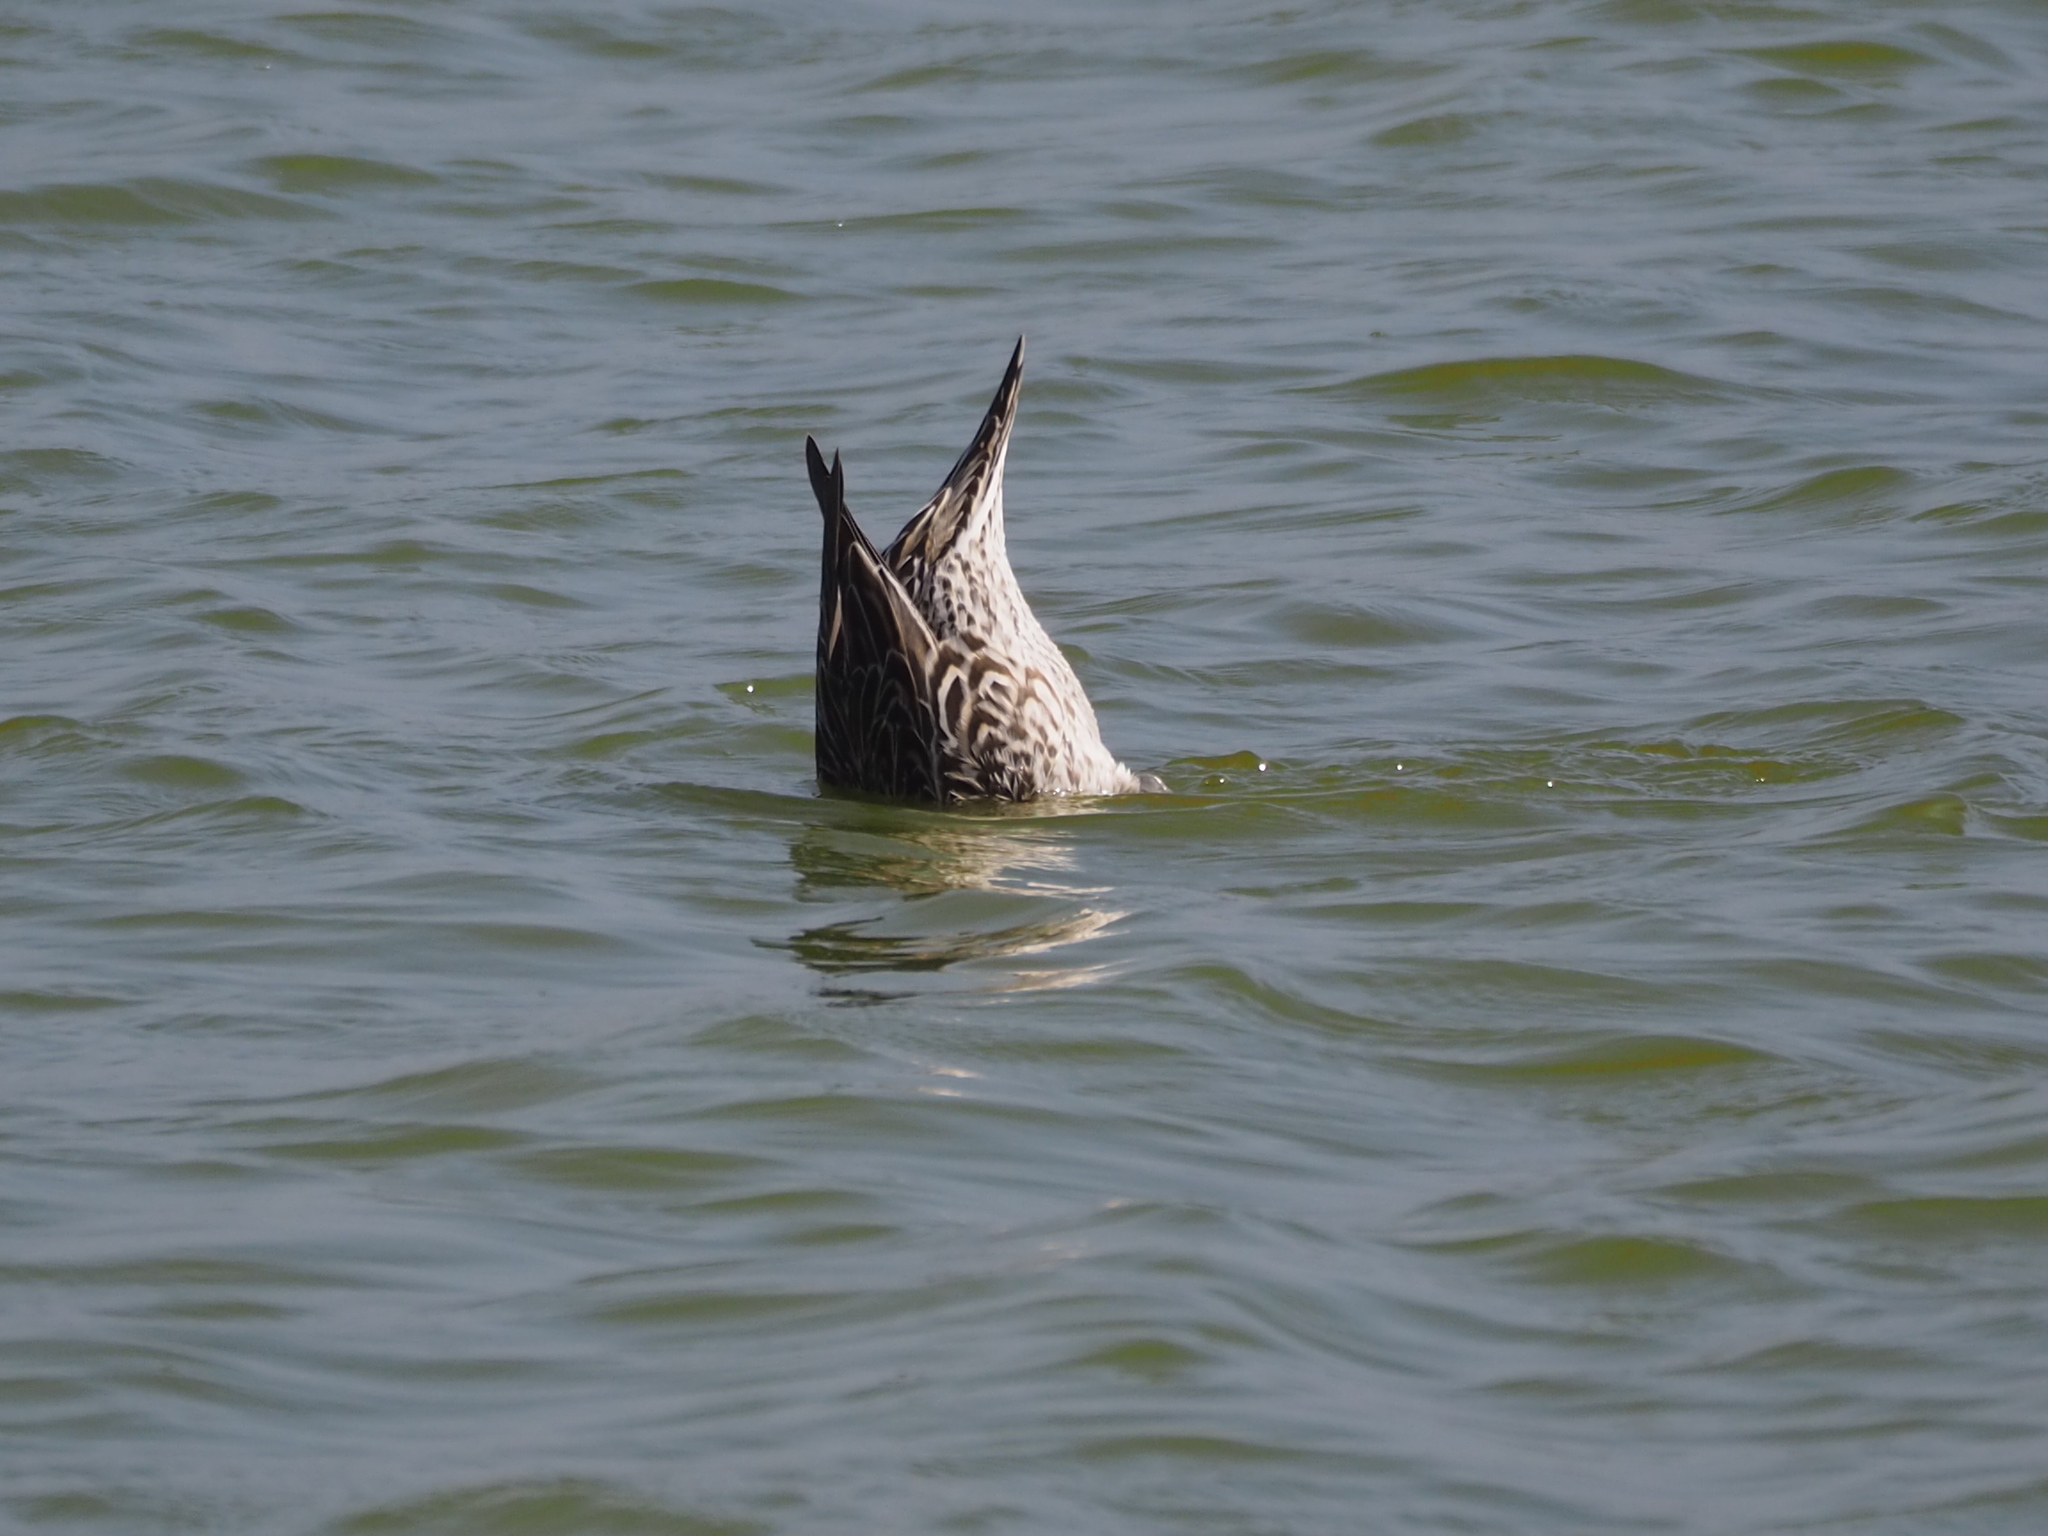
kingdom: Animalia
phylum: Chordata
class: Aves
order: Anseriformes
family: Anatidae
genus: Anas
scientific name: Anas acuta
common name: Northern pintail
